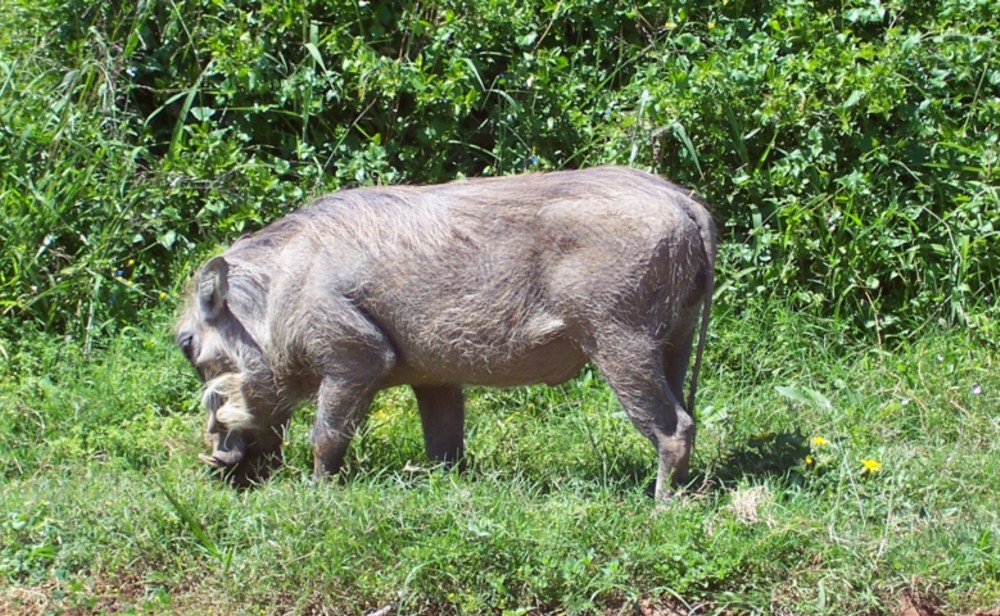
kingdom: Animalia
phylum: Chordata
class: Mammalia
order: Artiodactyla
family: Suidae
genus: Phacochoerus
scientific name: Phacochoerus africanus
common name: Common warthog
